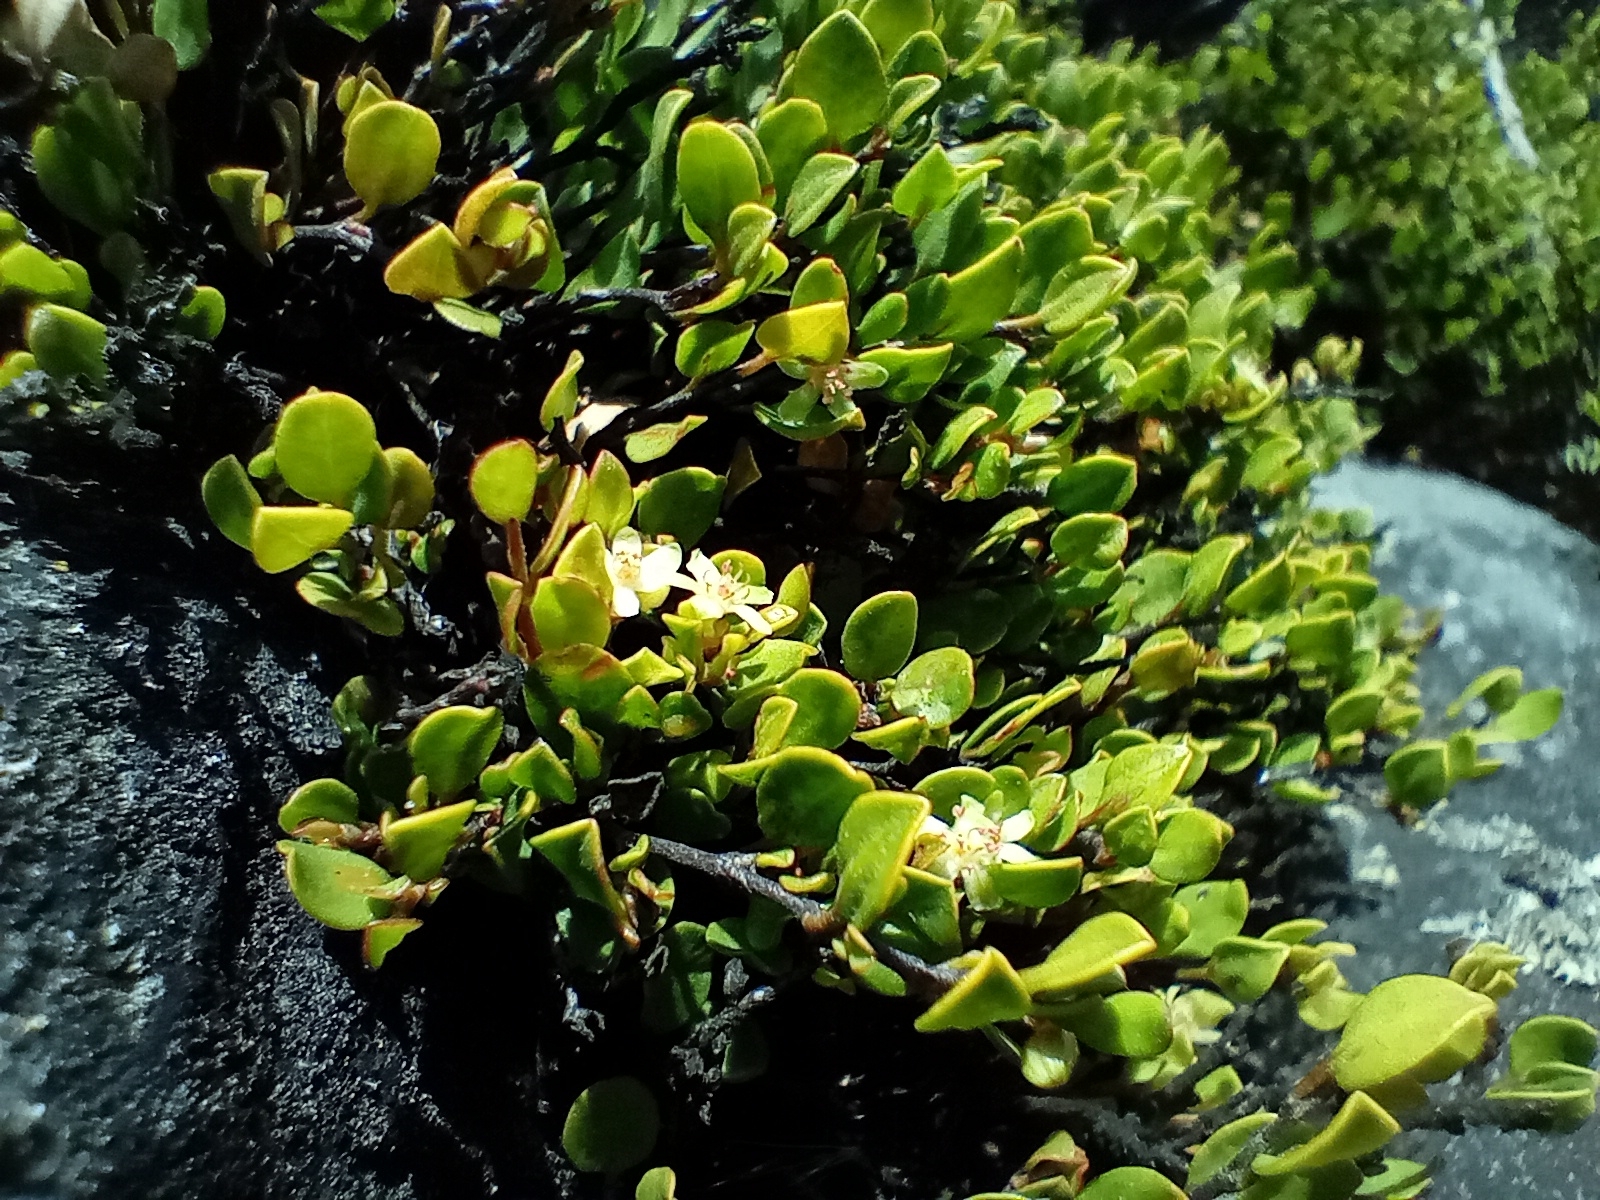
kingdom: Plantae
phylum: Tracheophyta
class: Magnoliopsida
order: Caryophyllales
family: Polygonaceae
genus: Muehlenbeckia
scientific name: Muehlenbeckia axillaris
